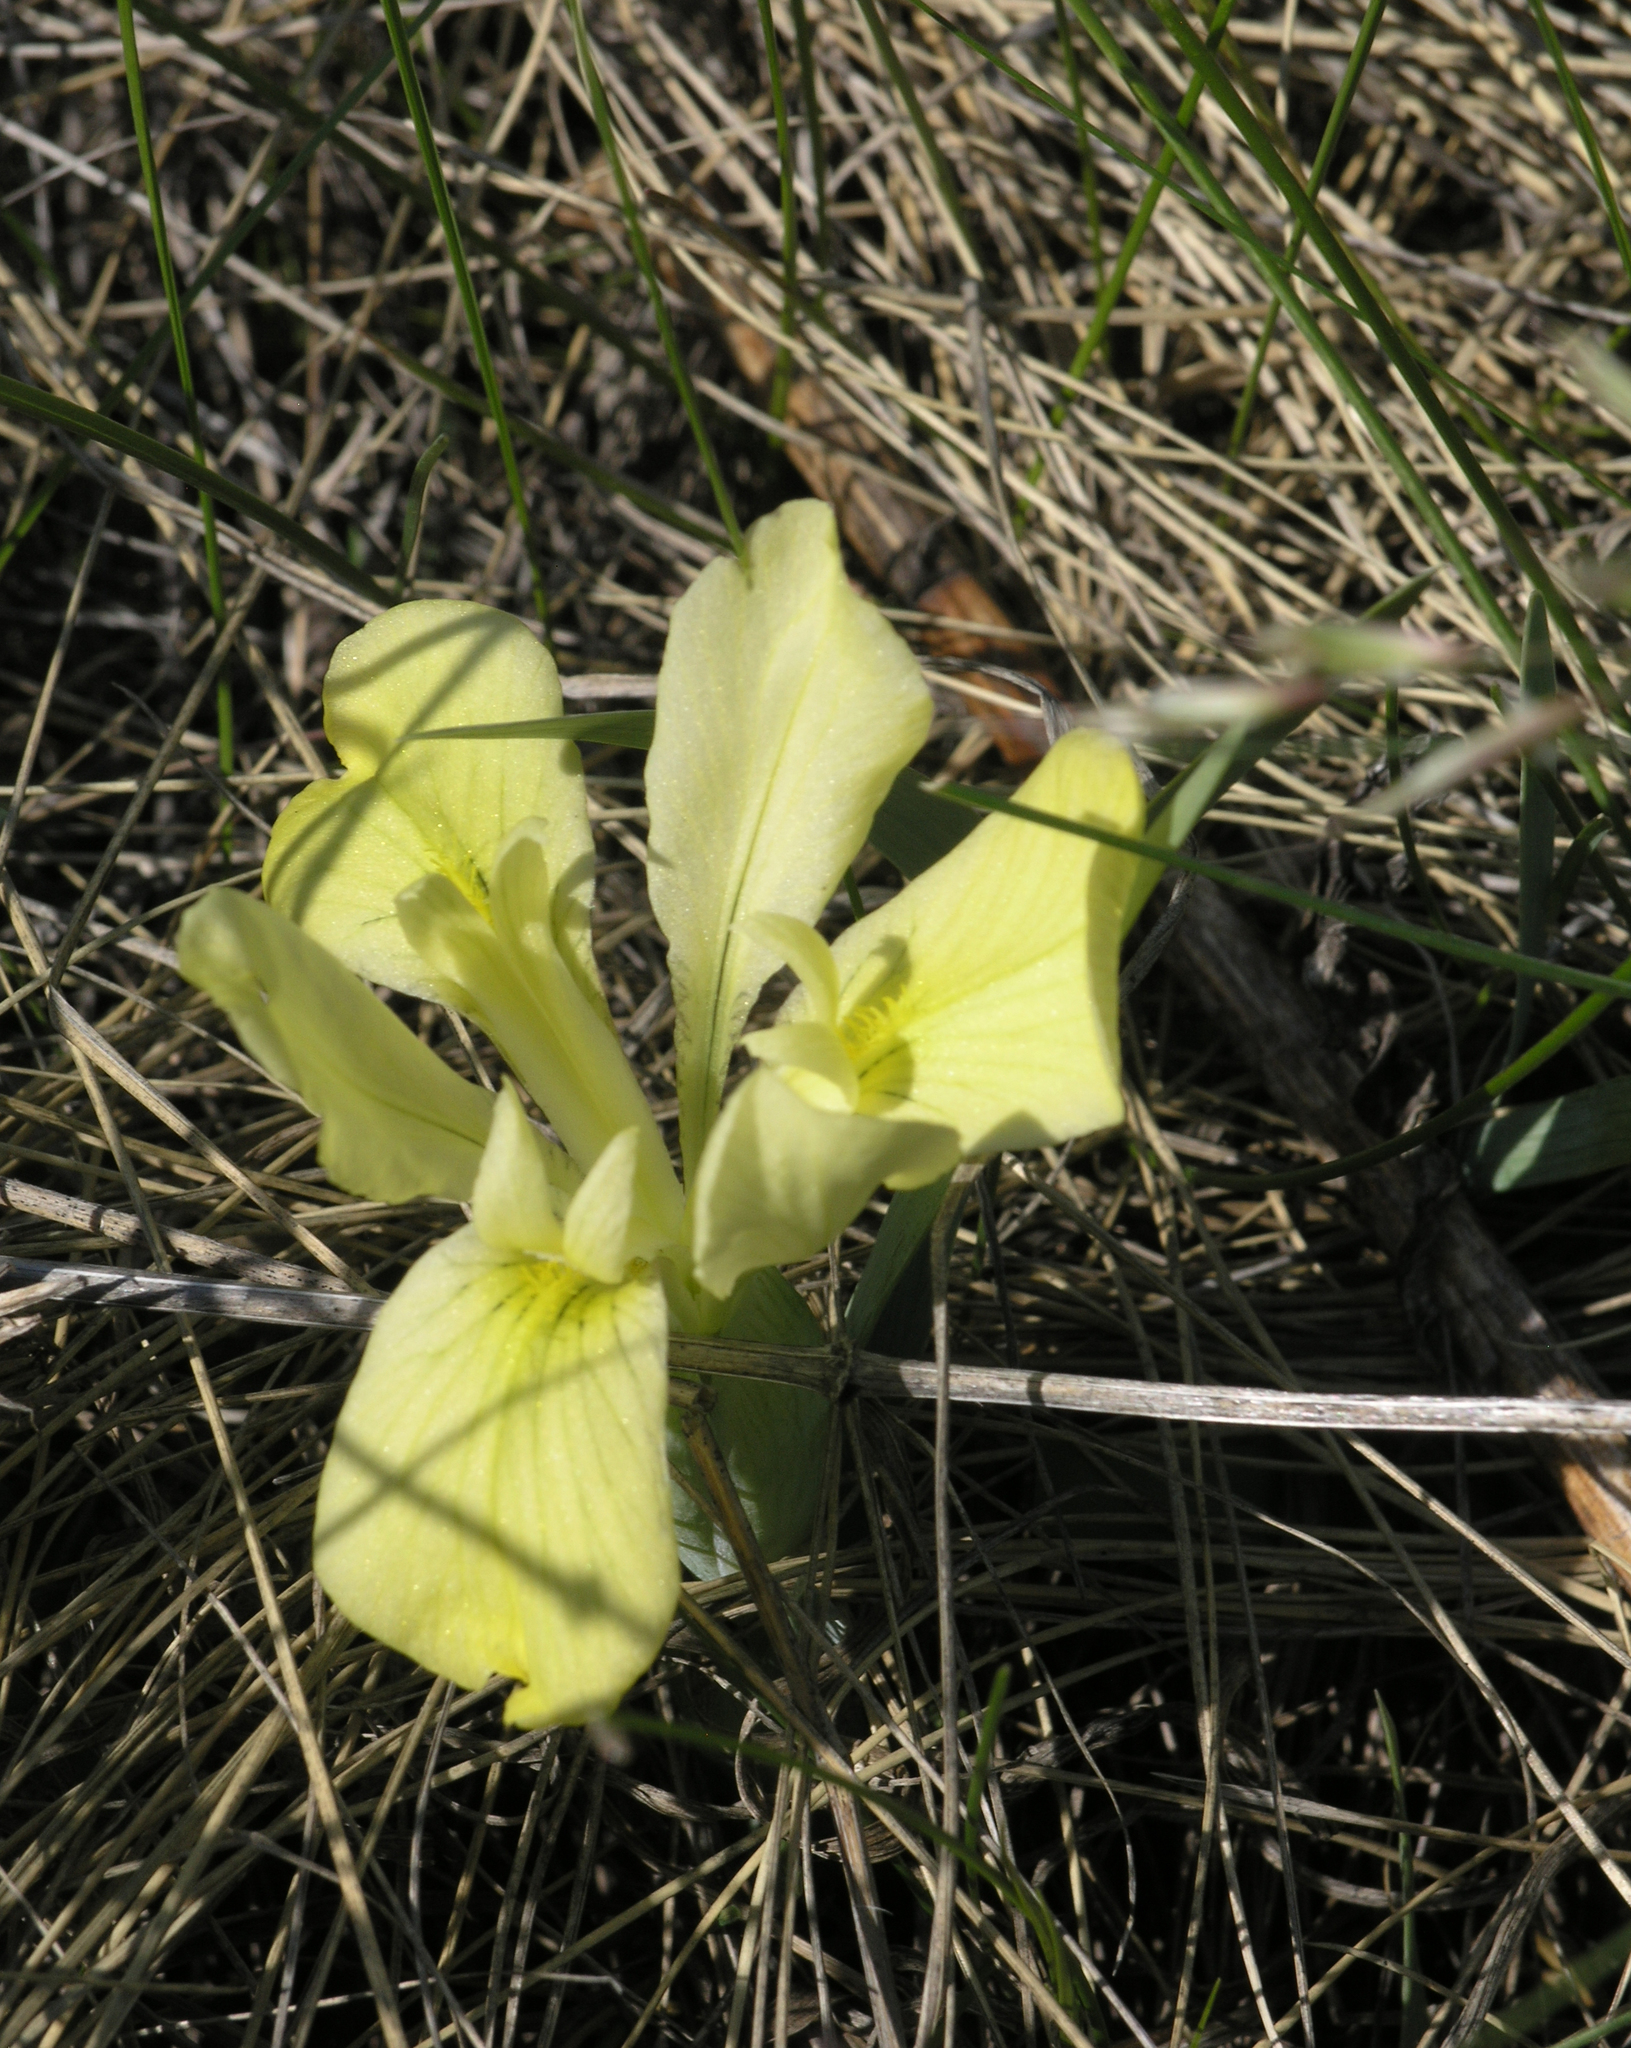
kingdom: Plantae
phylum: Tracheophyta
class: Liliopsida
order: Asparagales
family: Iridaceae
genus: Iris
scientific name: Iris humilis
